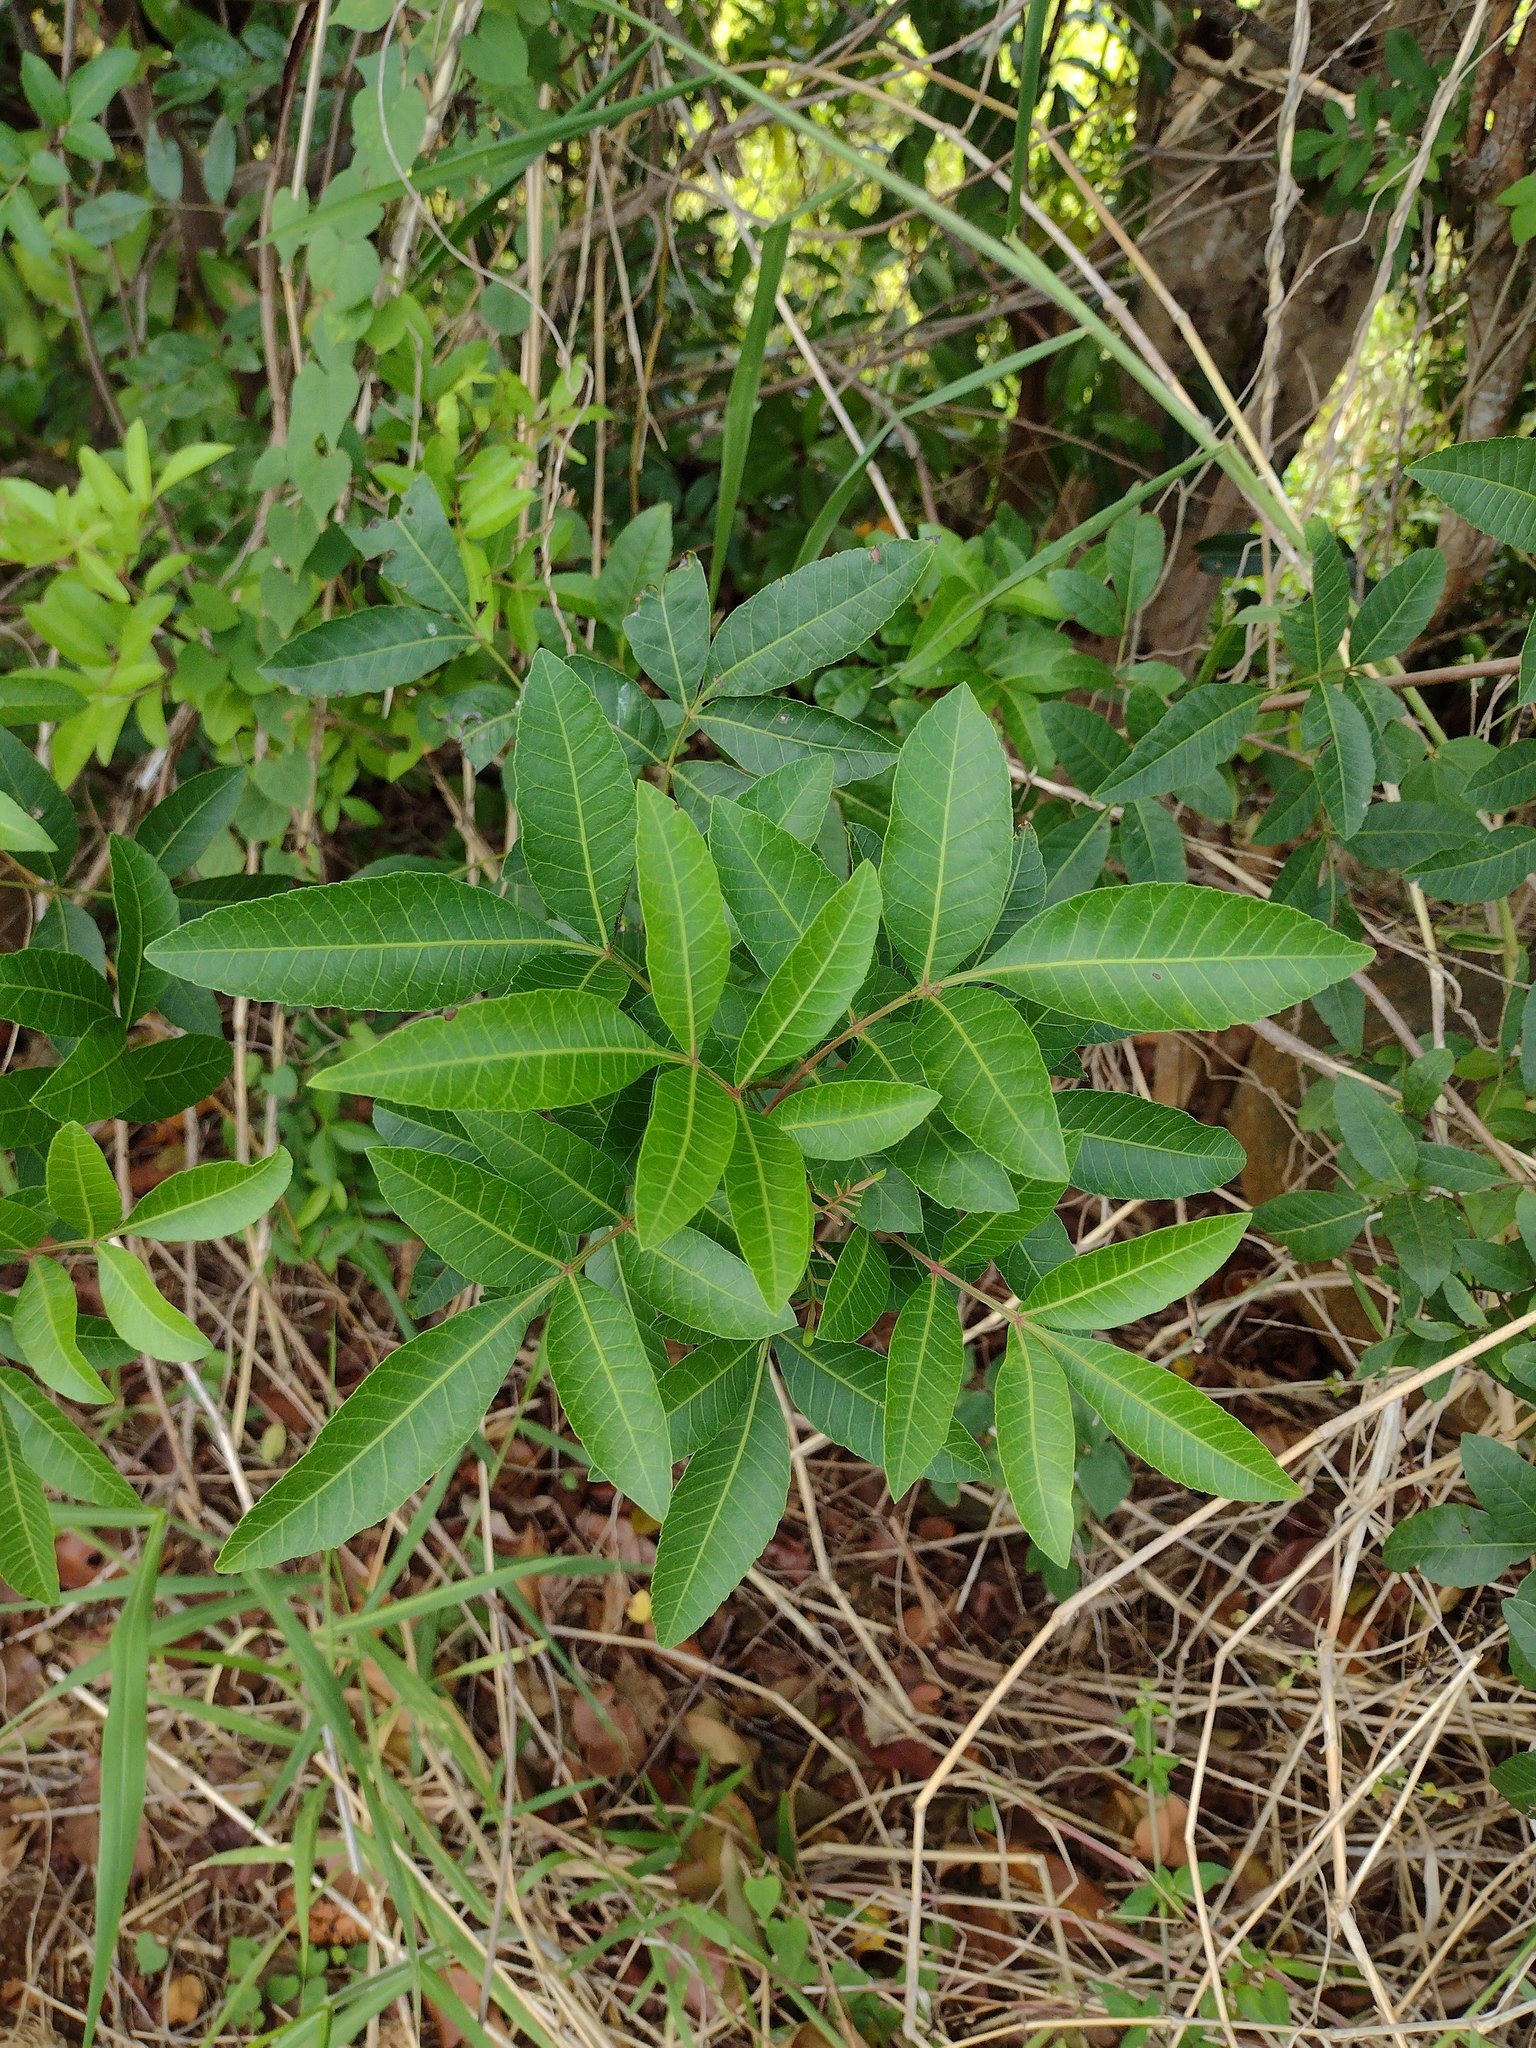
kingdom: Plantae
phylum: Tracheophyta
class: Magnoliopsida
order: Sapindales
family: Anacardiaceae
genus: Schinus
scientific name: Schinus terebinthifolia
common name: Brazilian peppertree
